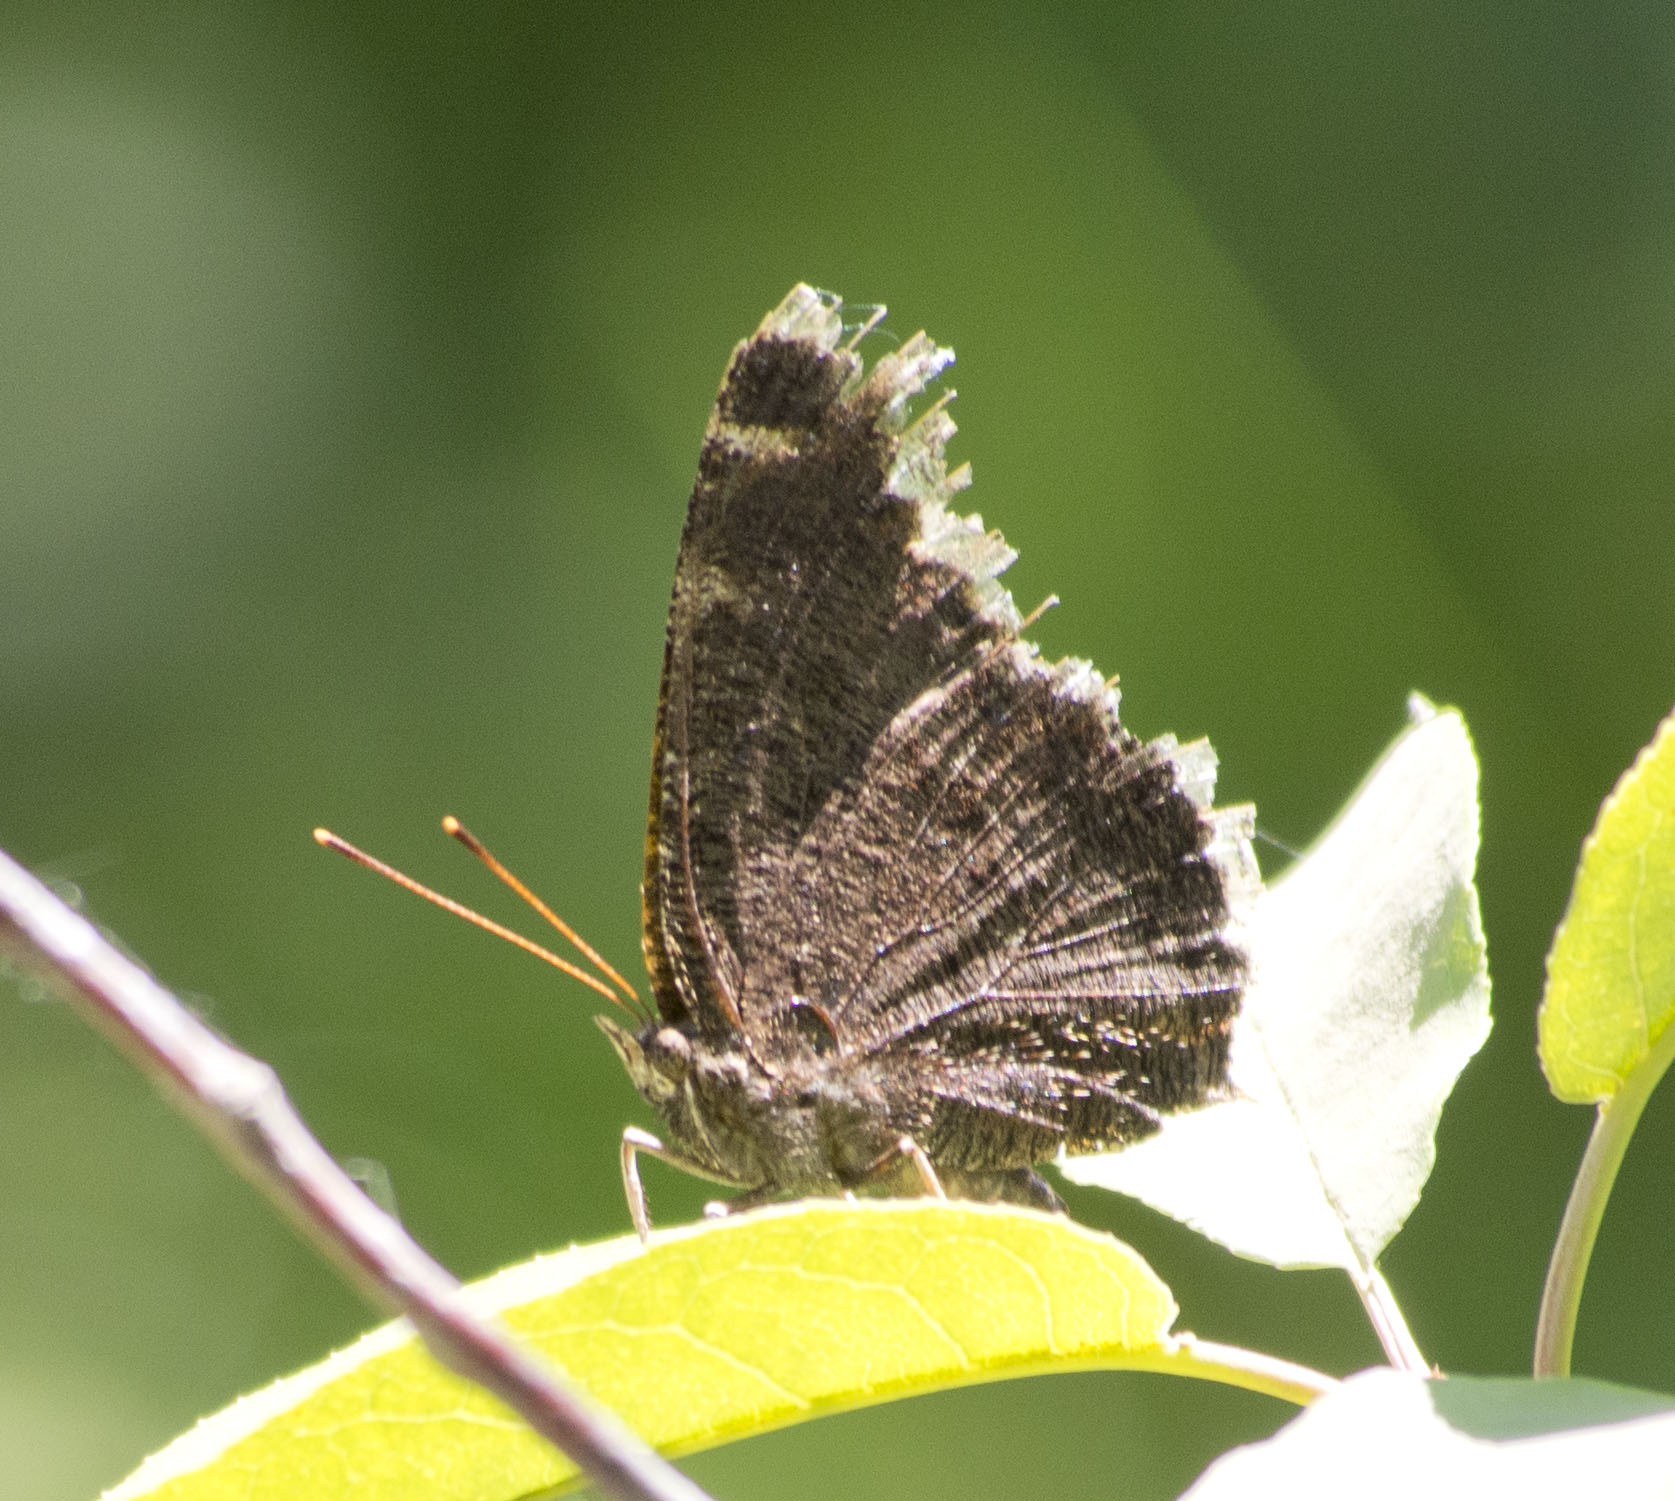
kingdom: Animalia
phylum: Arthropoda
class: Insecta
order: Lepidoptera
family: Nymphalidae
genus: Nymphalis
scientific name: Nymphalis antiopa
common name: Camberwell beauty
